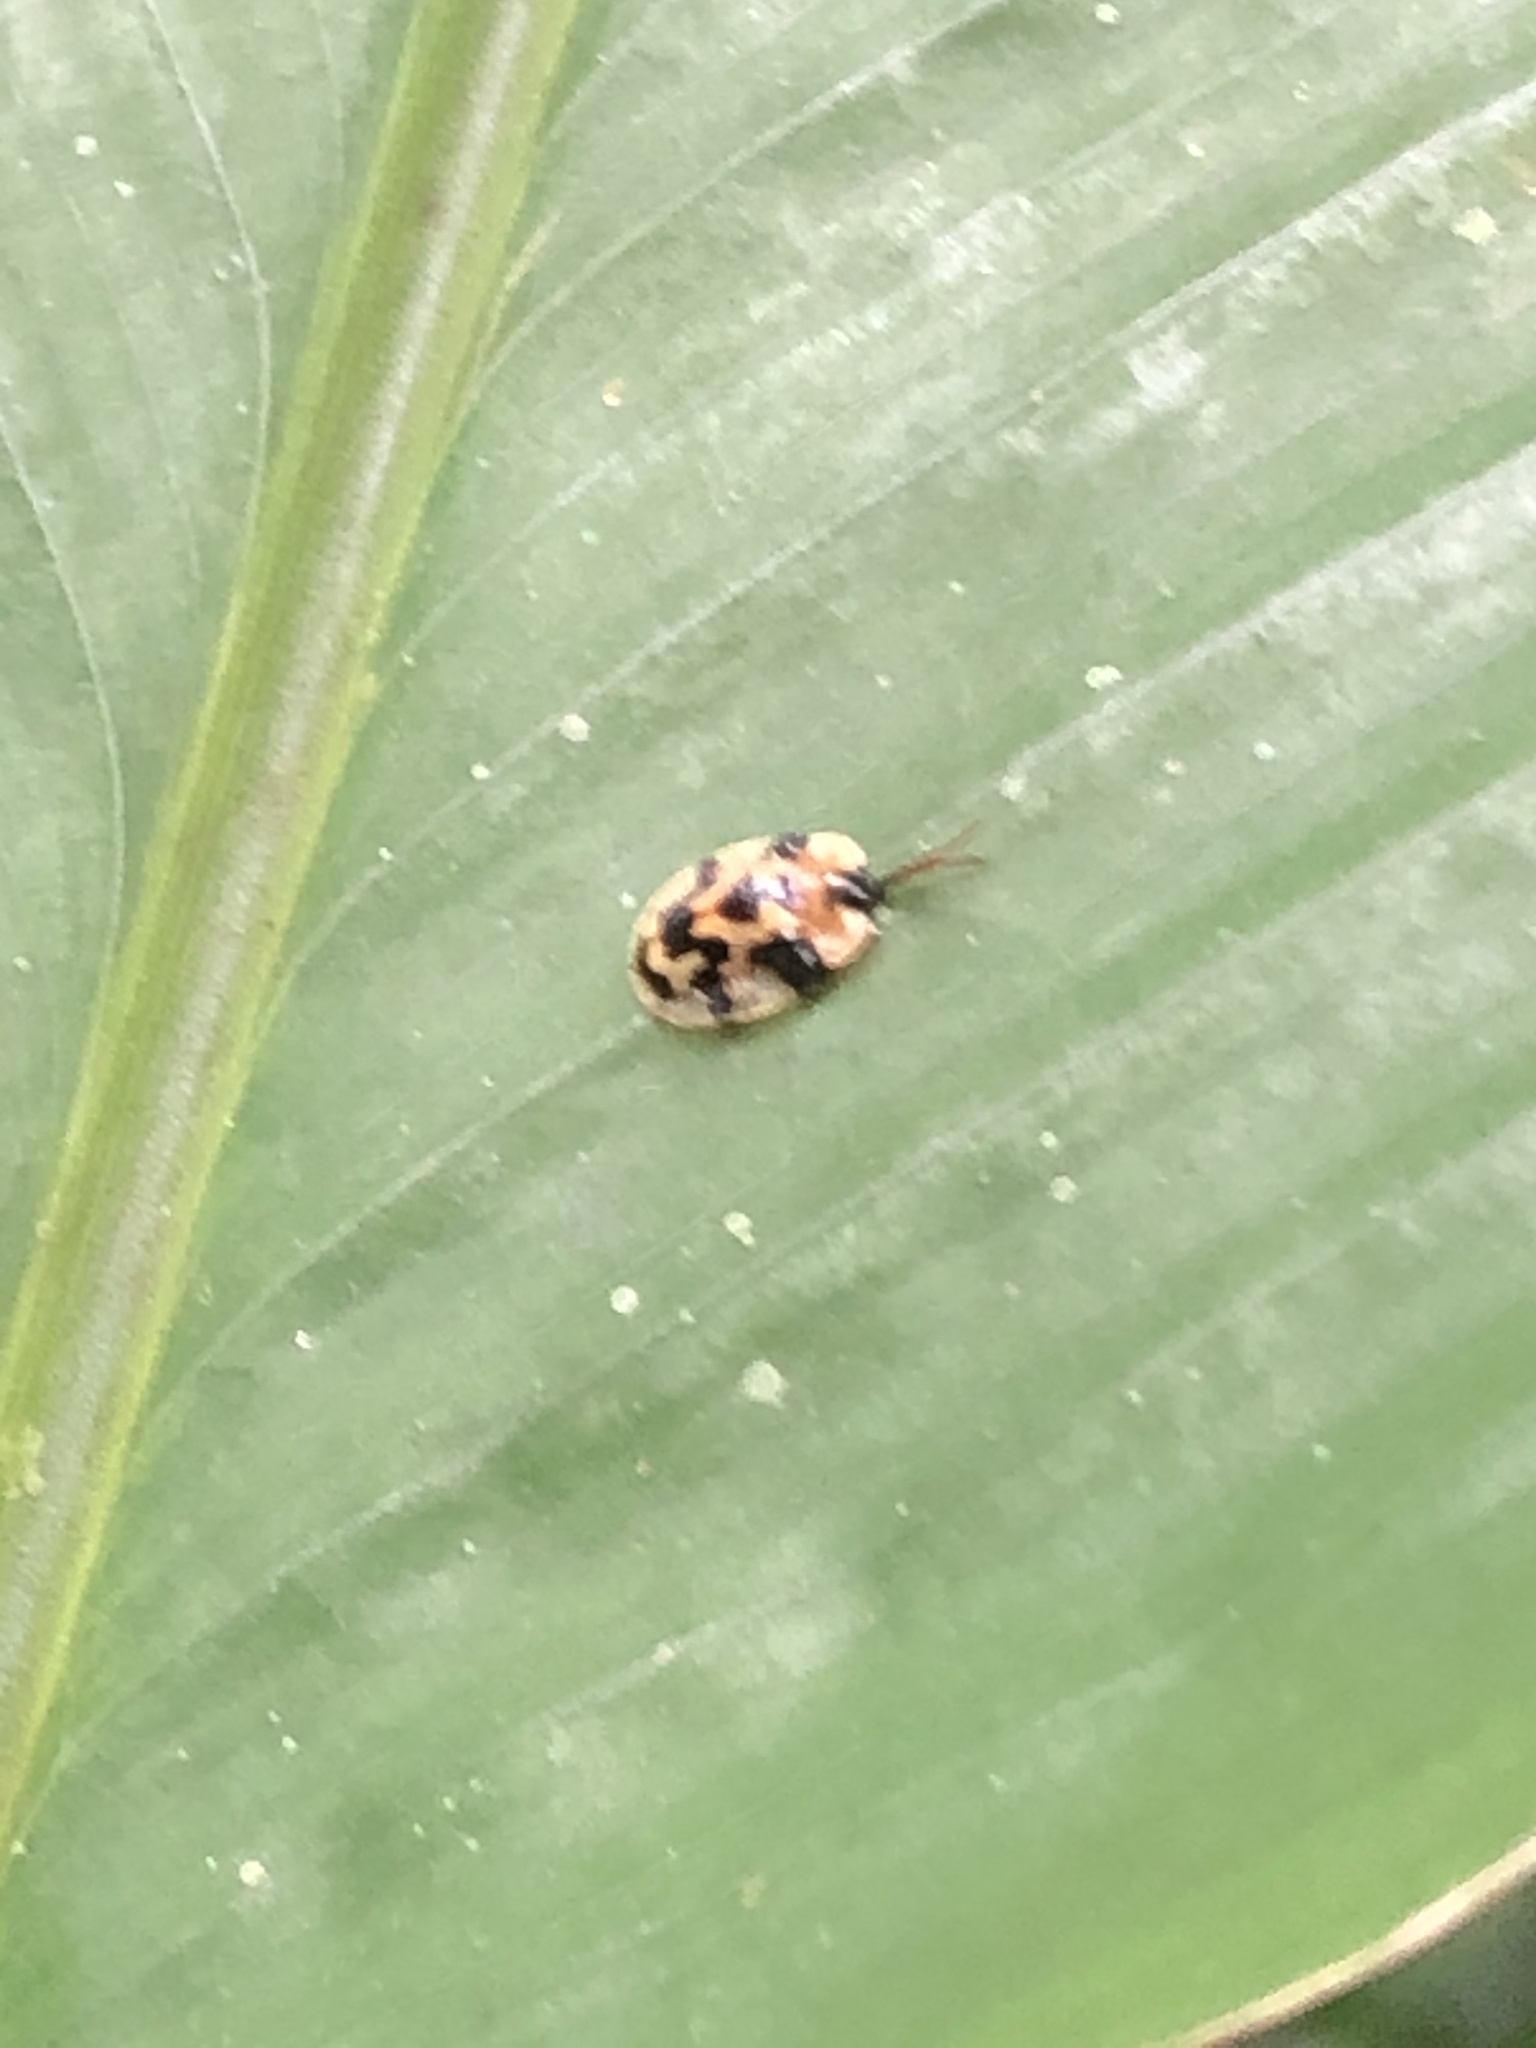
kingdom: Animalia
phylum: Arthropoda
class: Insecta
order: Coleoptera
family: Chrysomelidae
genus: Aslamidium
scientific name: Aslamidium capense
